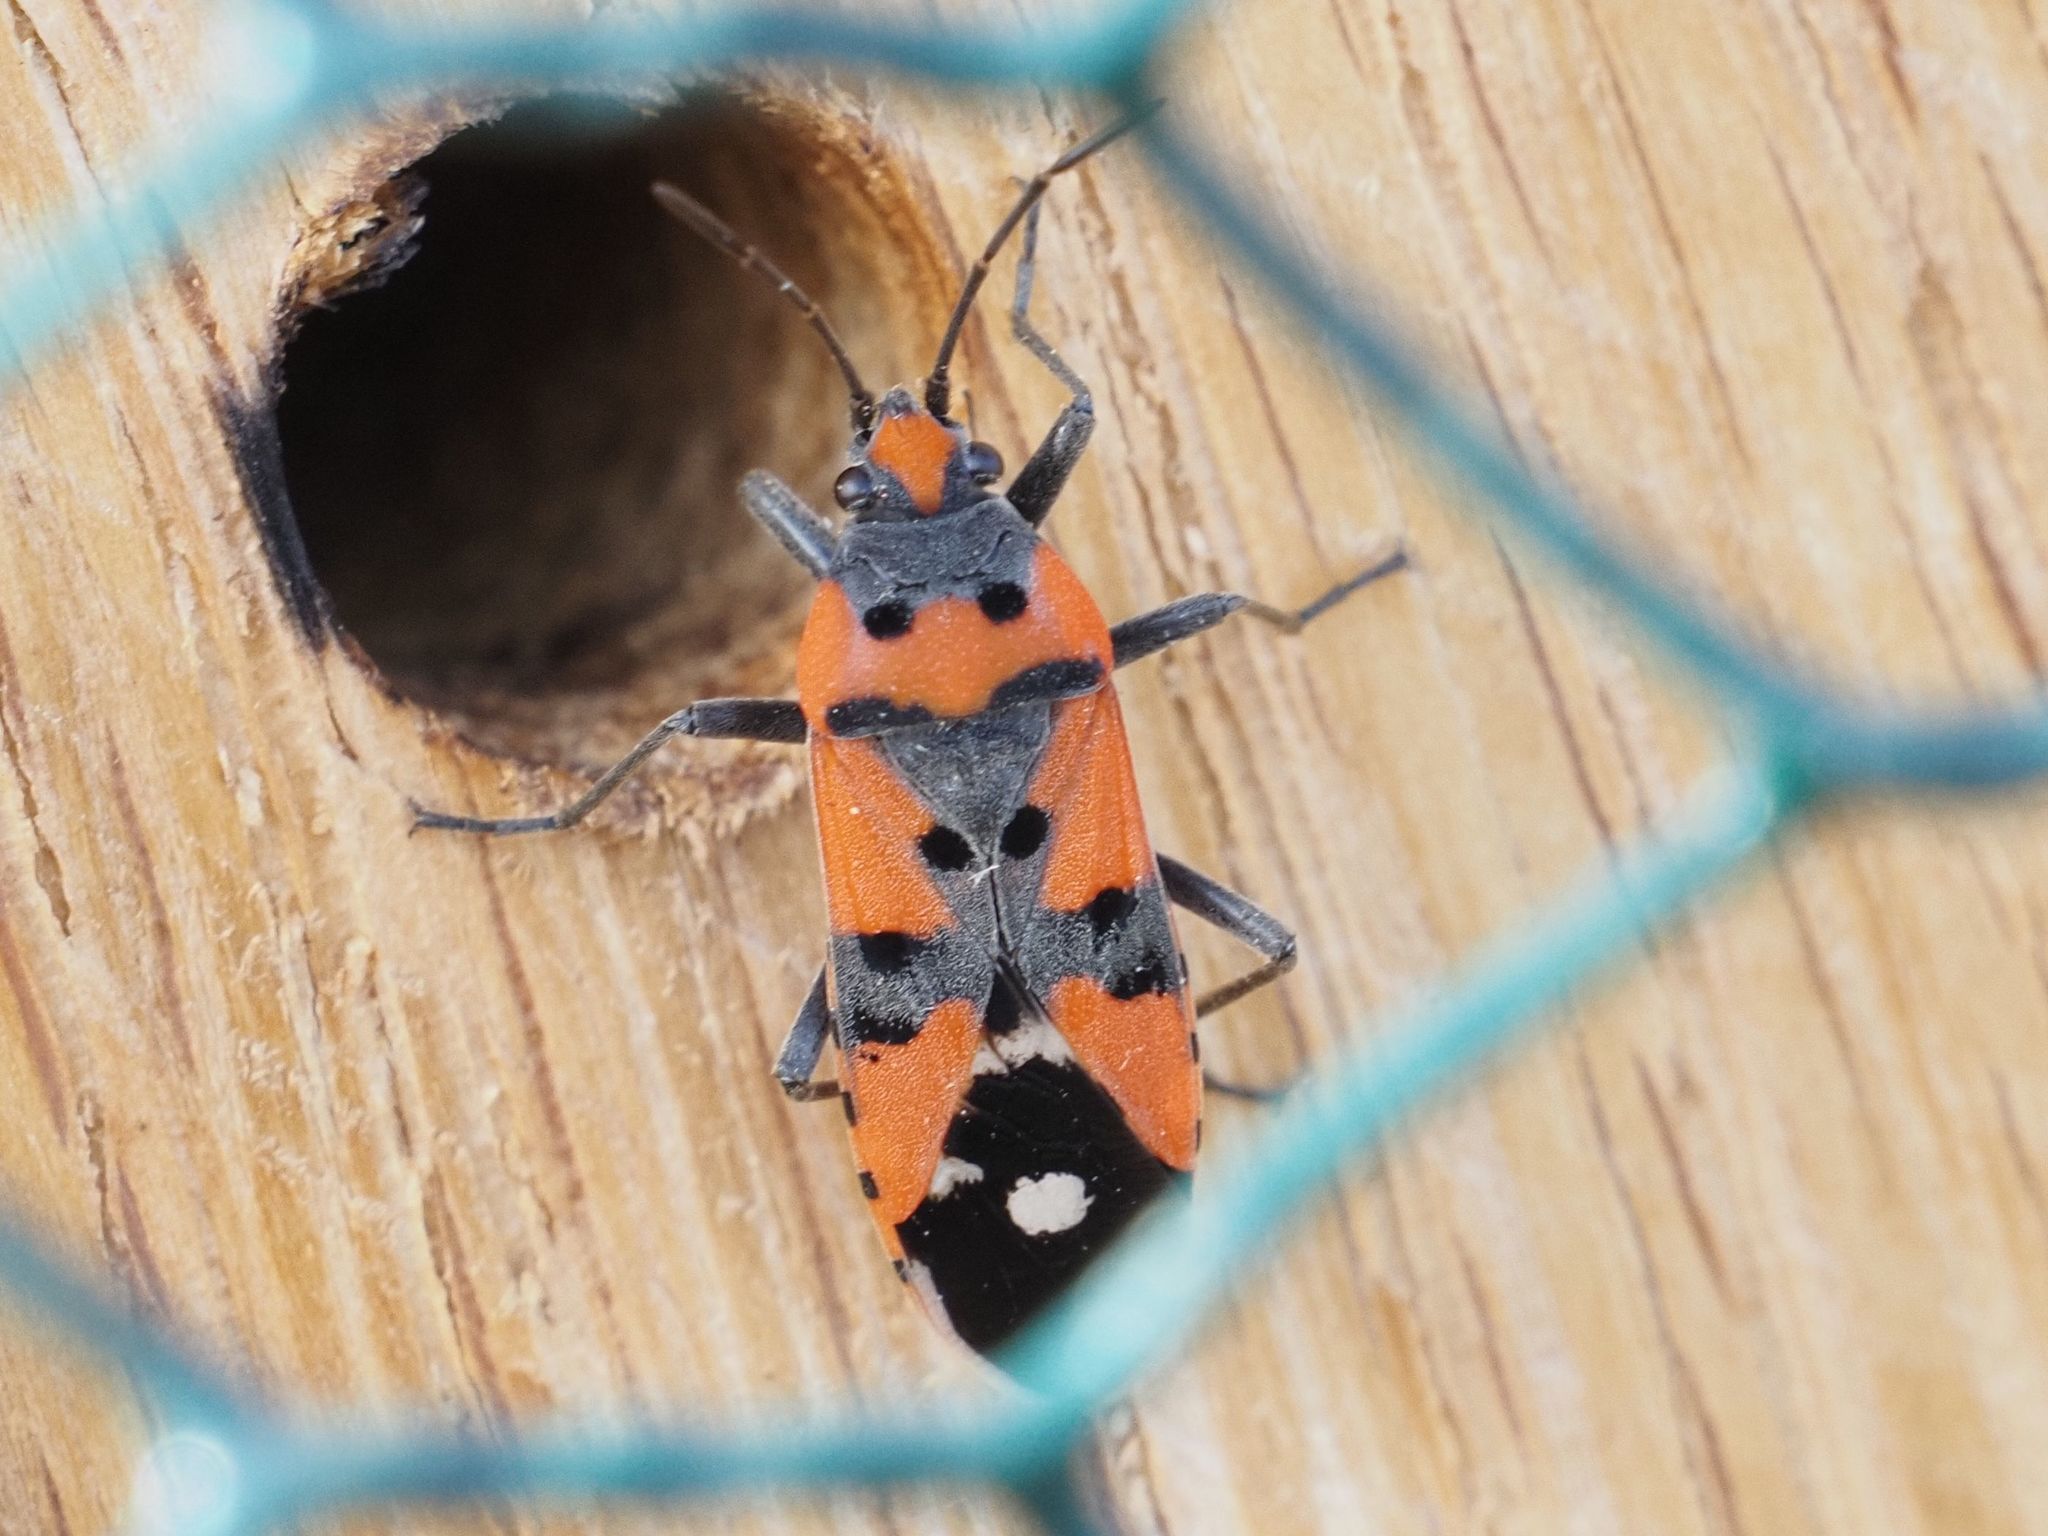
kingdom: Animalia
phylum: Arthropoda
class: Insecta
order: Hemiptera
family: Lygaeidae
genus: Lygaeus
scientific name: Lygaeus equestris
